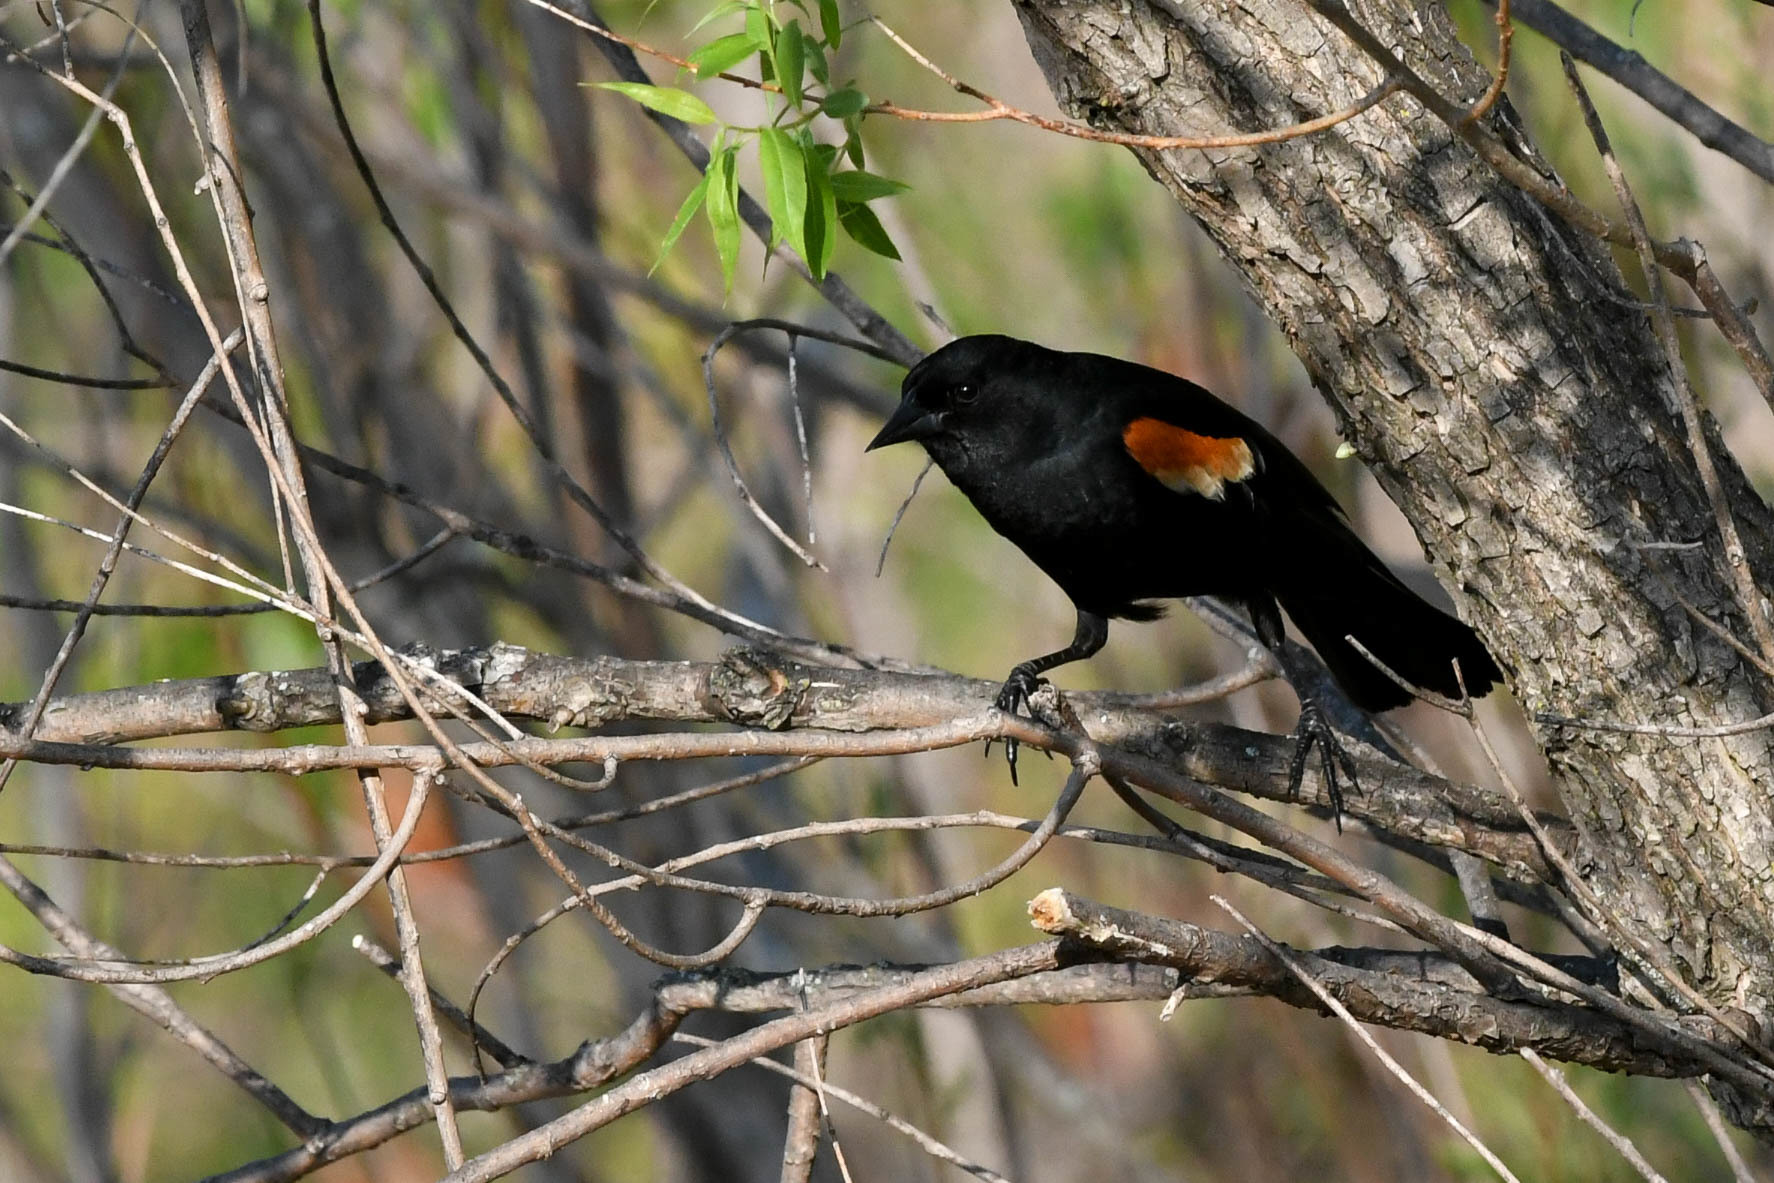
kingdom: Animalia
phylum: Chordata
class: Aves
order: Passeriformes
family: Icteridae
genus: Agelaius
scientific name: Agelaius phoeniceus
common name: Red-winged blackbird
